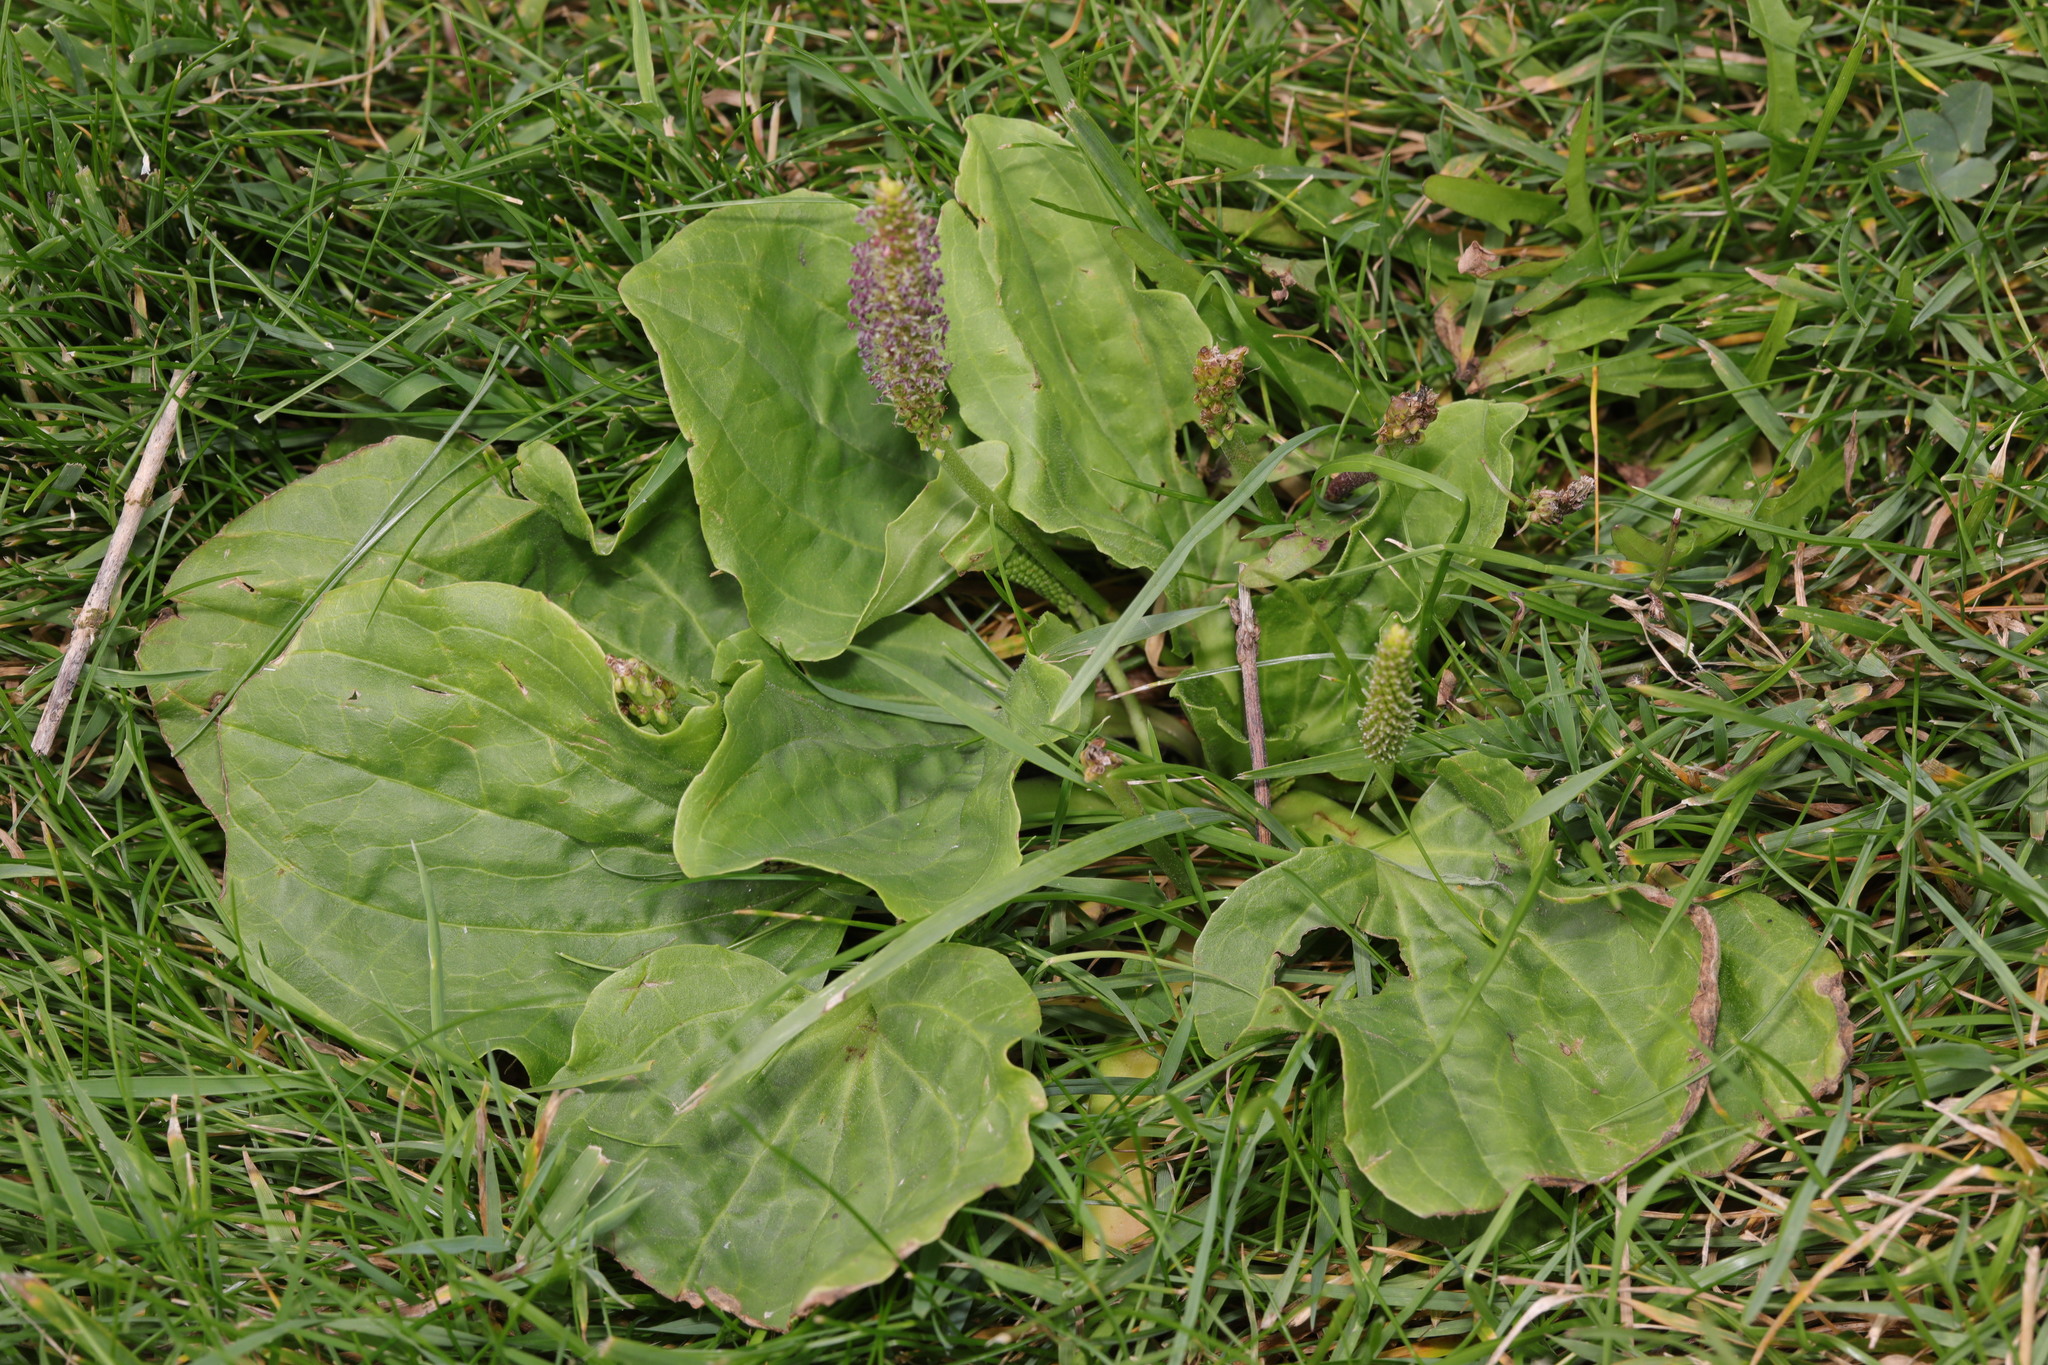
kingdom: Plantae
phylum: Tracheophyta
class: Magnoliopsida
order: Lamiales
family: Plantaginaceae
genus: Plantago
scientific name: Plantago major
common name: Common plantain
